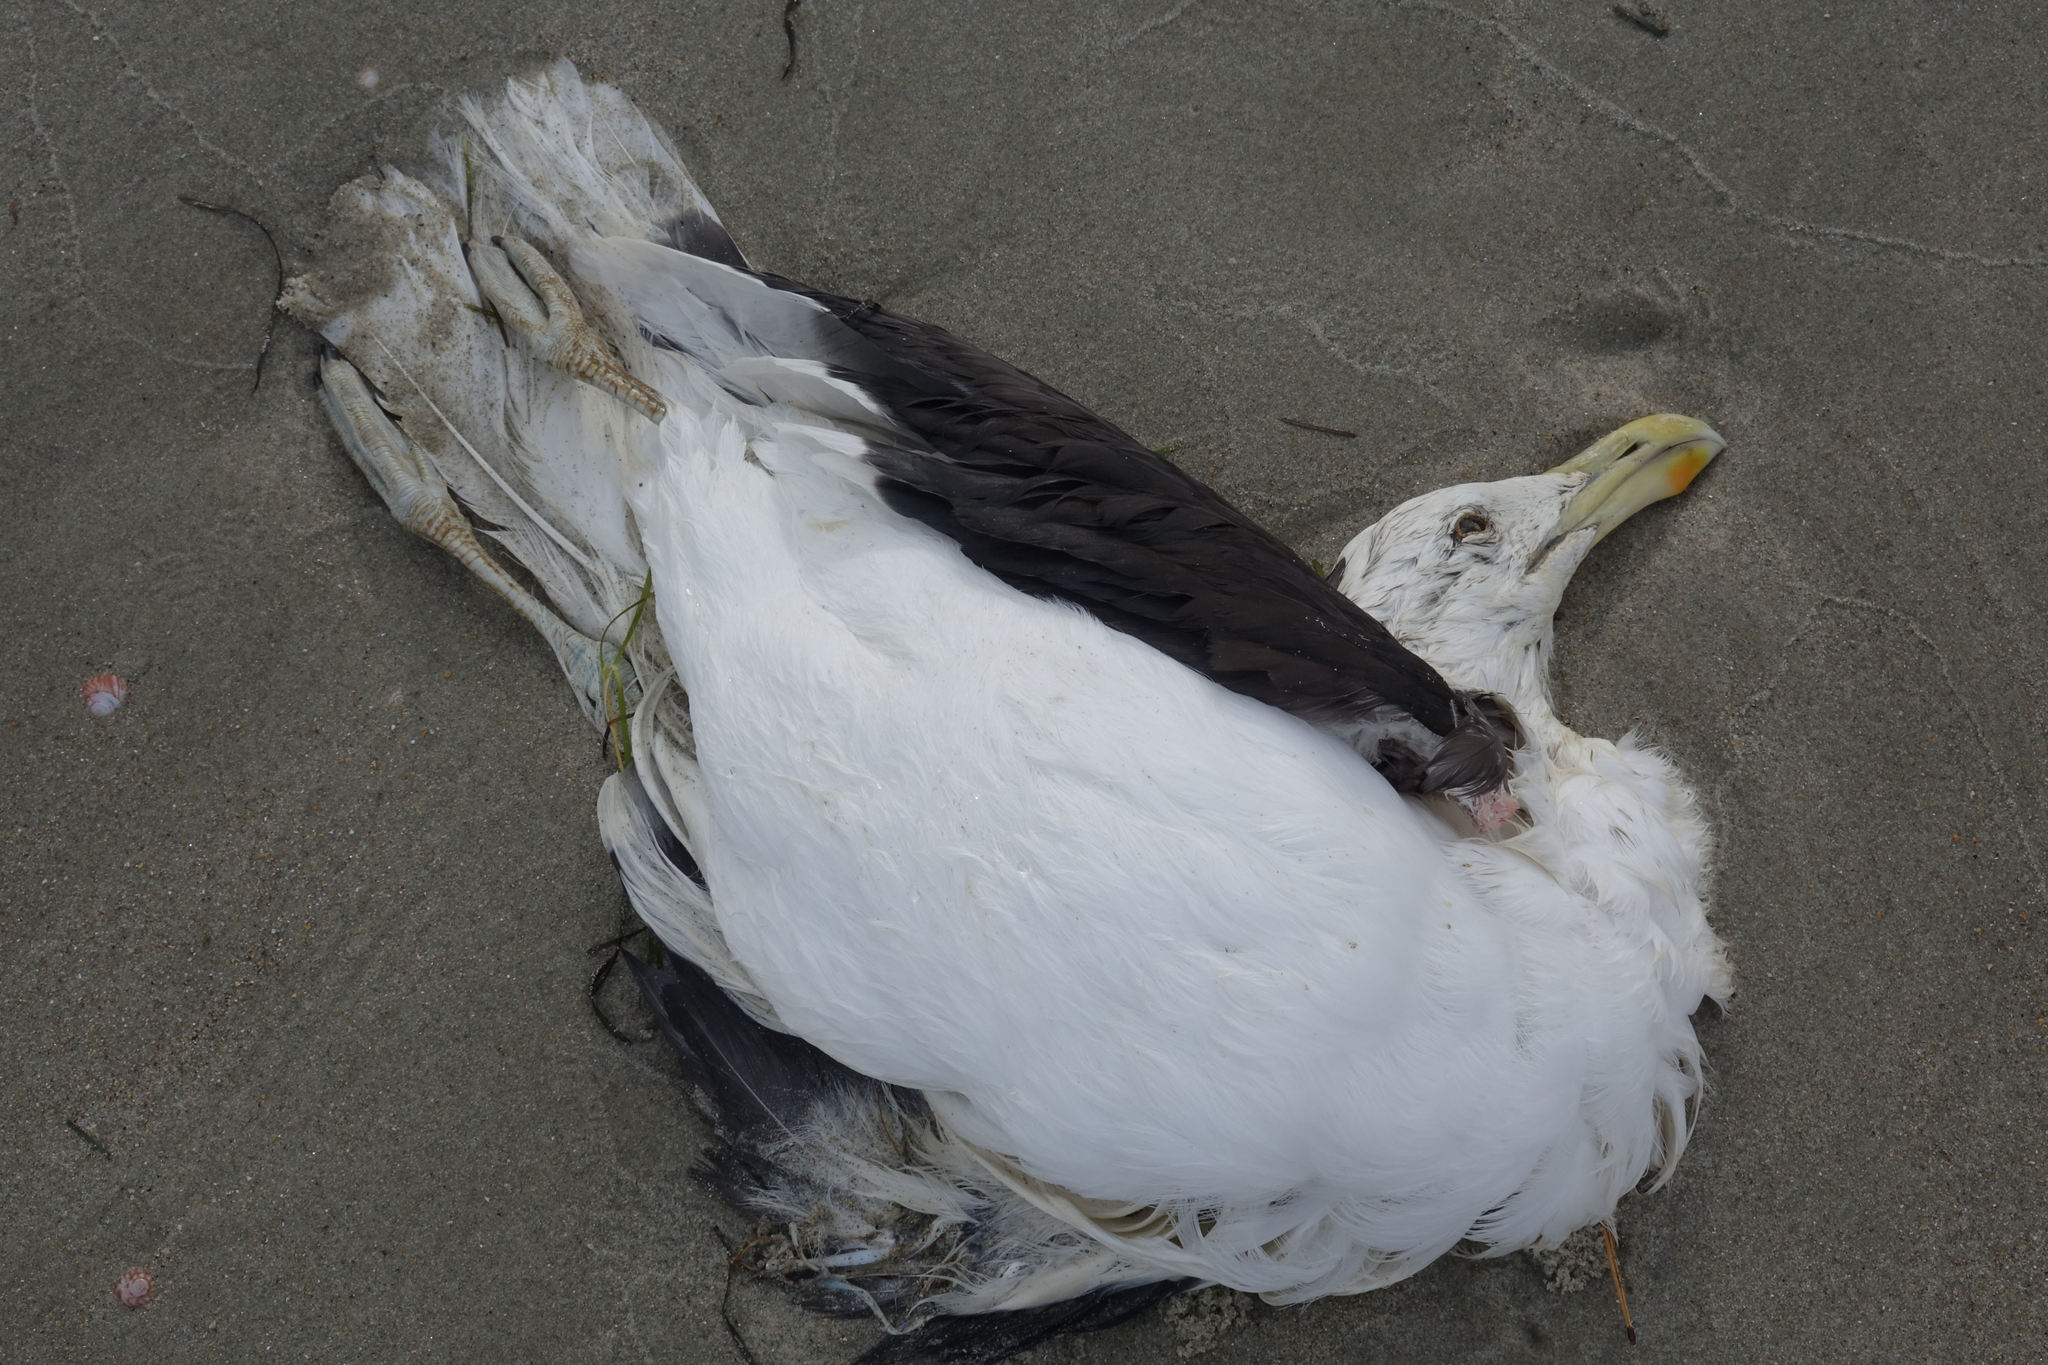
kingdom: Animalia
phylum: Chordata
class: Aves
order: Charadriiformes
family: Laridae
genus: Larus
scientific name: Larus dominicanus
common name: Kelp gull
